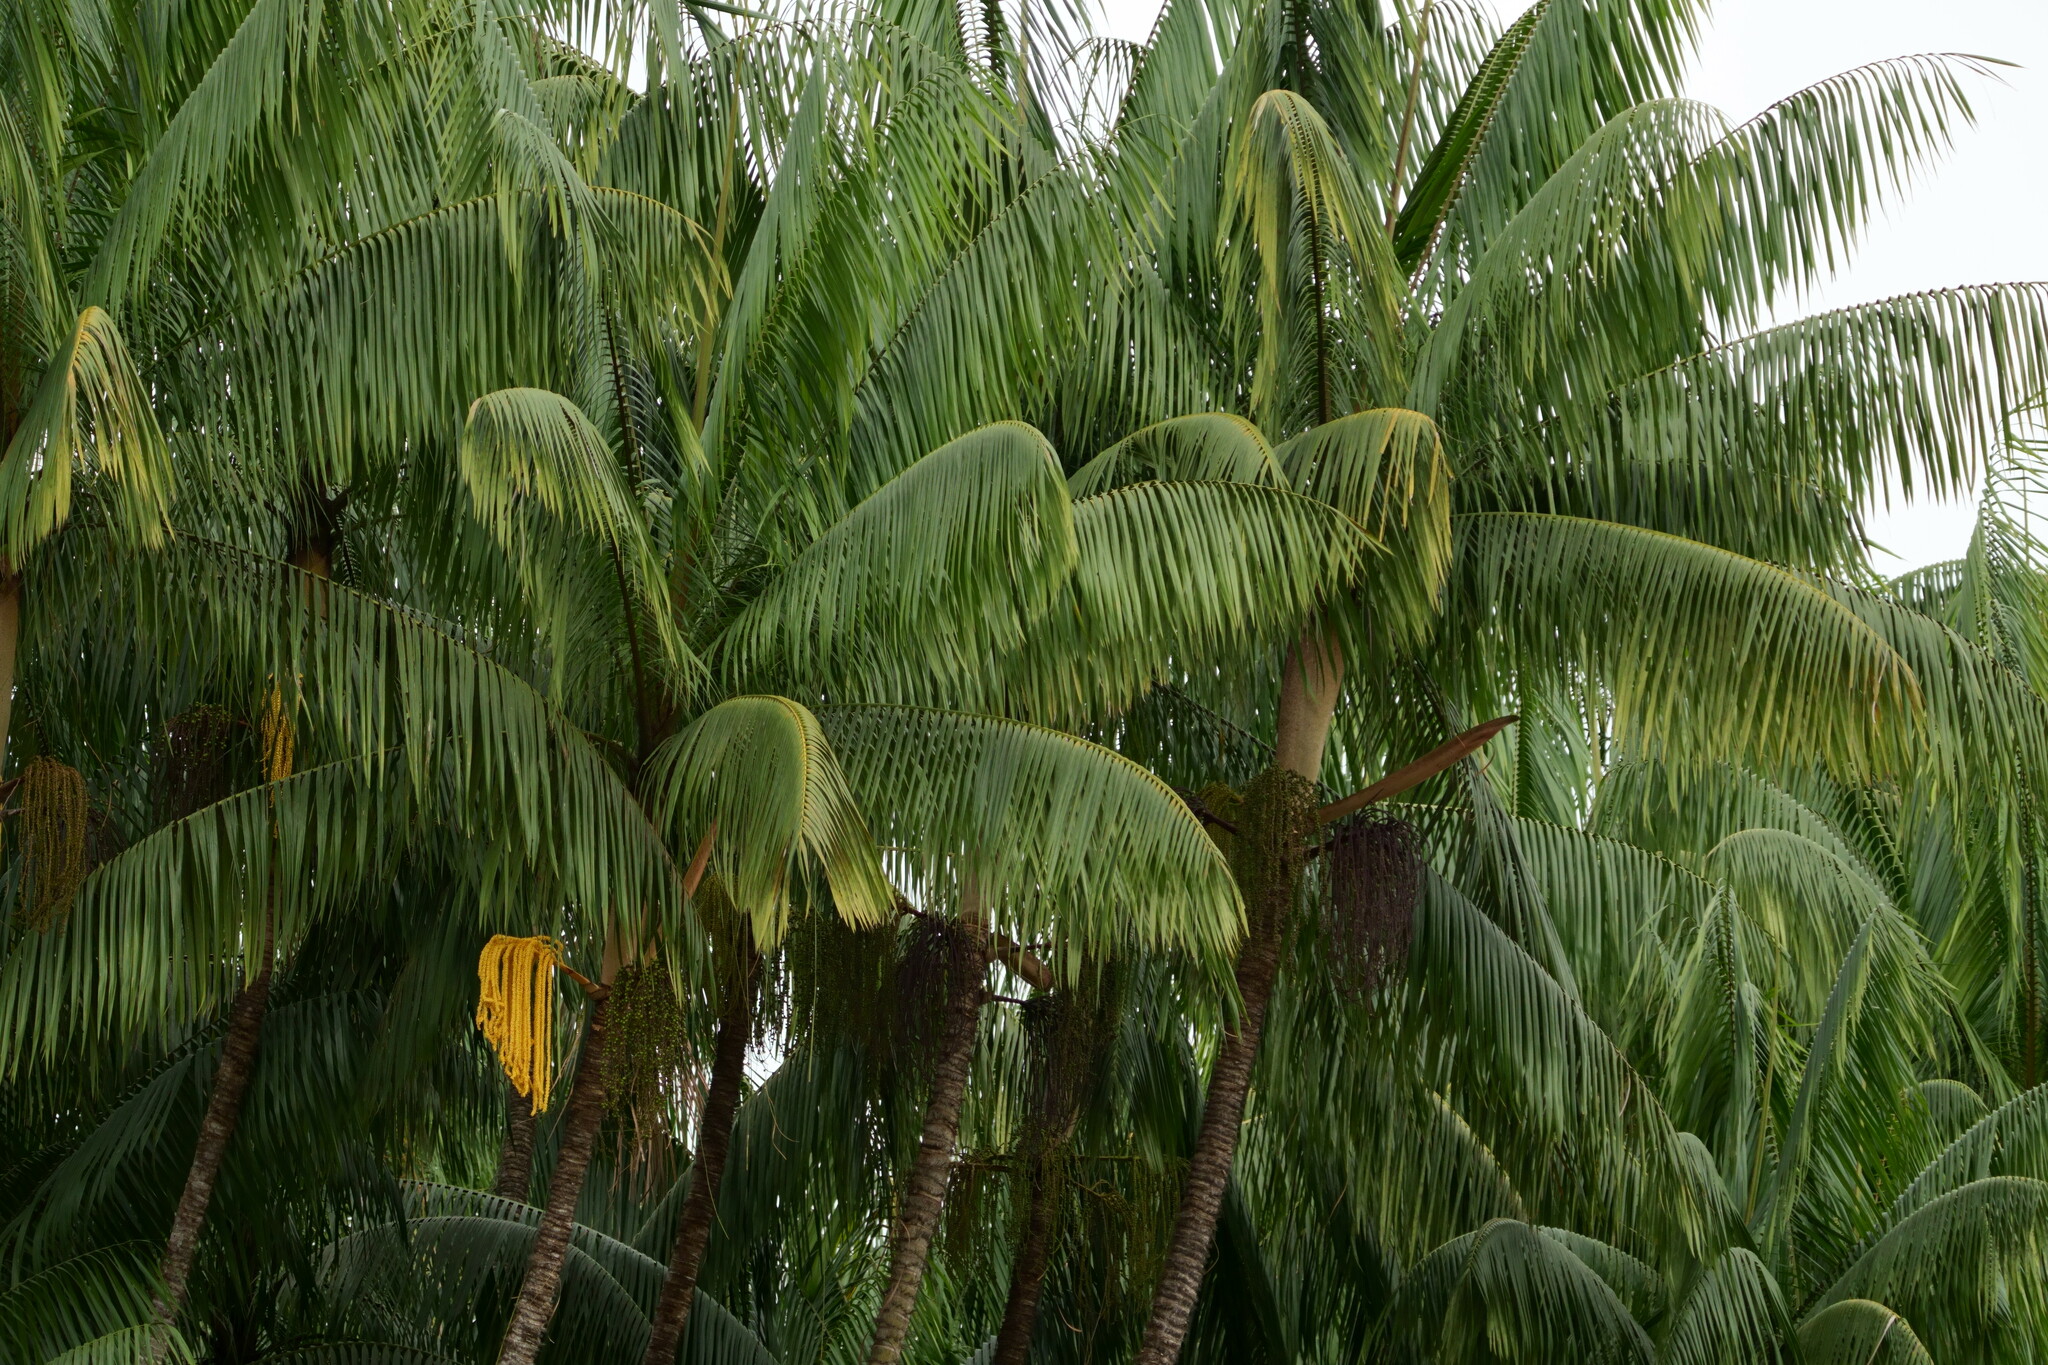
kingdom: Plantae
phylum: Tracheophyta
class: Liliopsida
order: Arecales
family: Arecaceae
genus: Oncosperma
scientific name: Oncosperma tigillarium
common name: Nibong
